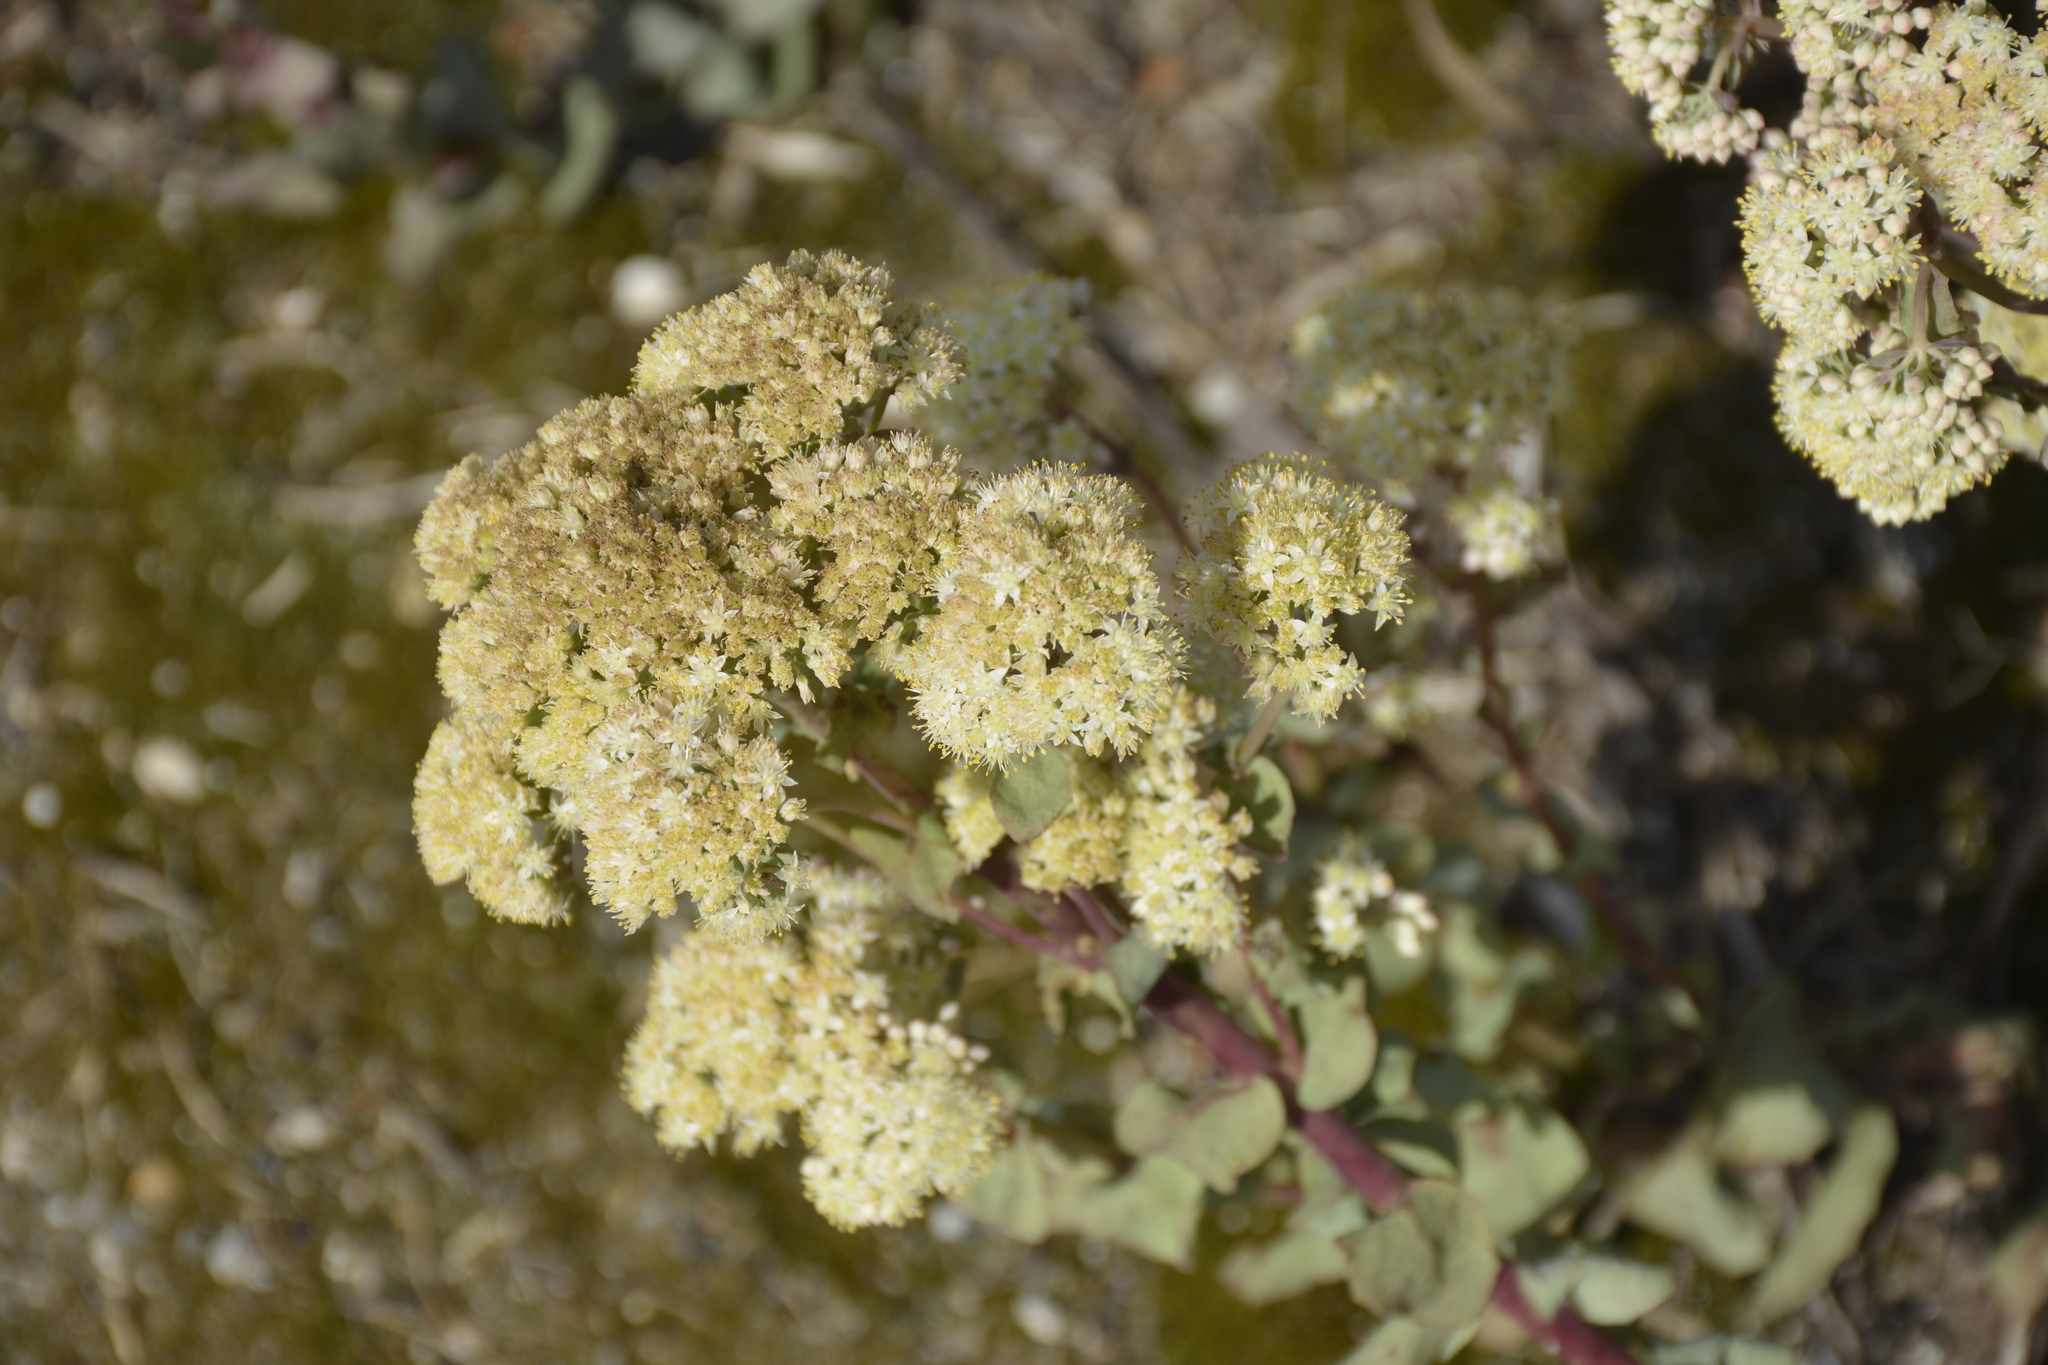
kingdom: Plantae
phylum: Tracheophyta
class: Magnoliopsida
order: Saxifragales
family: Crassulaceae
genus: Hylotelephium
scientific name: Hylotelephium maximum
